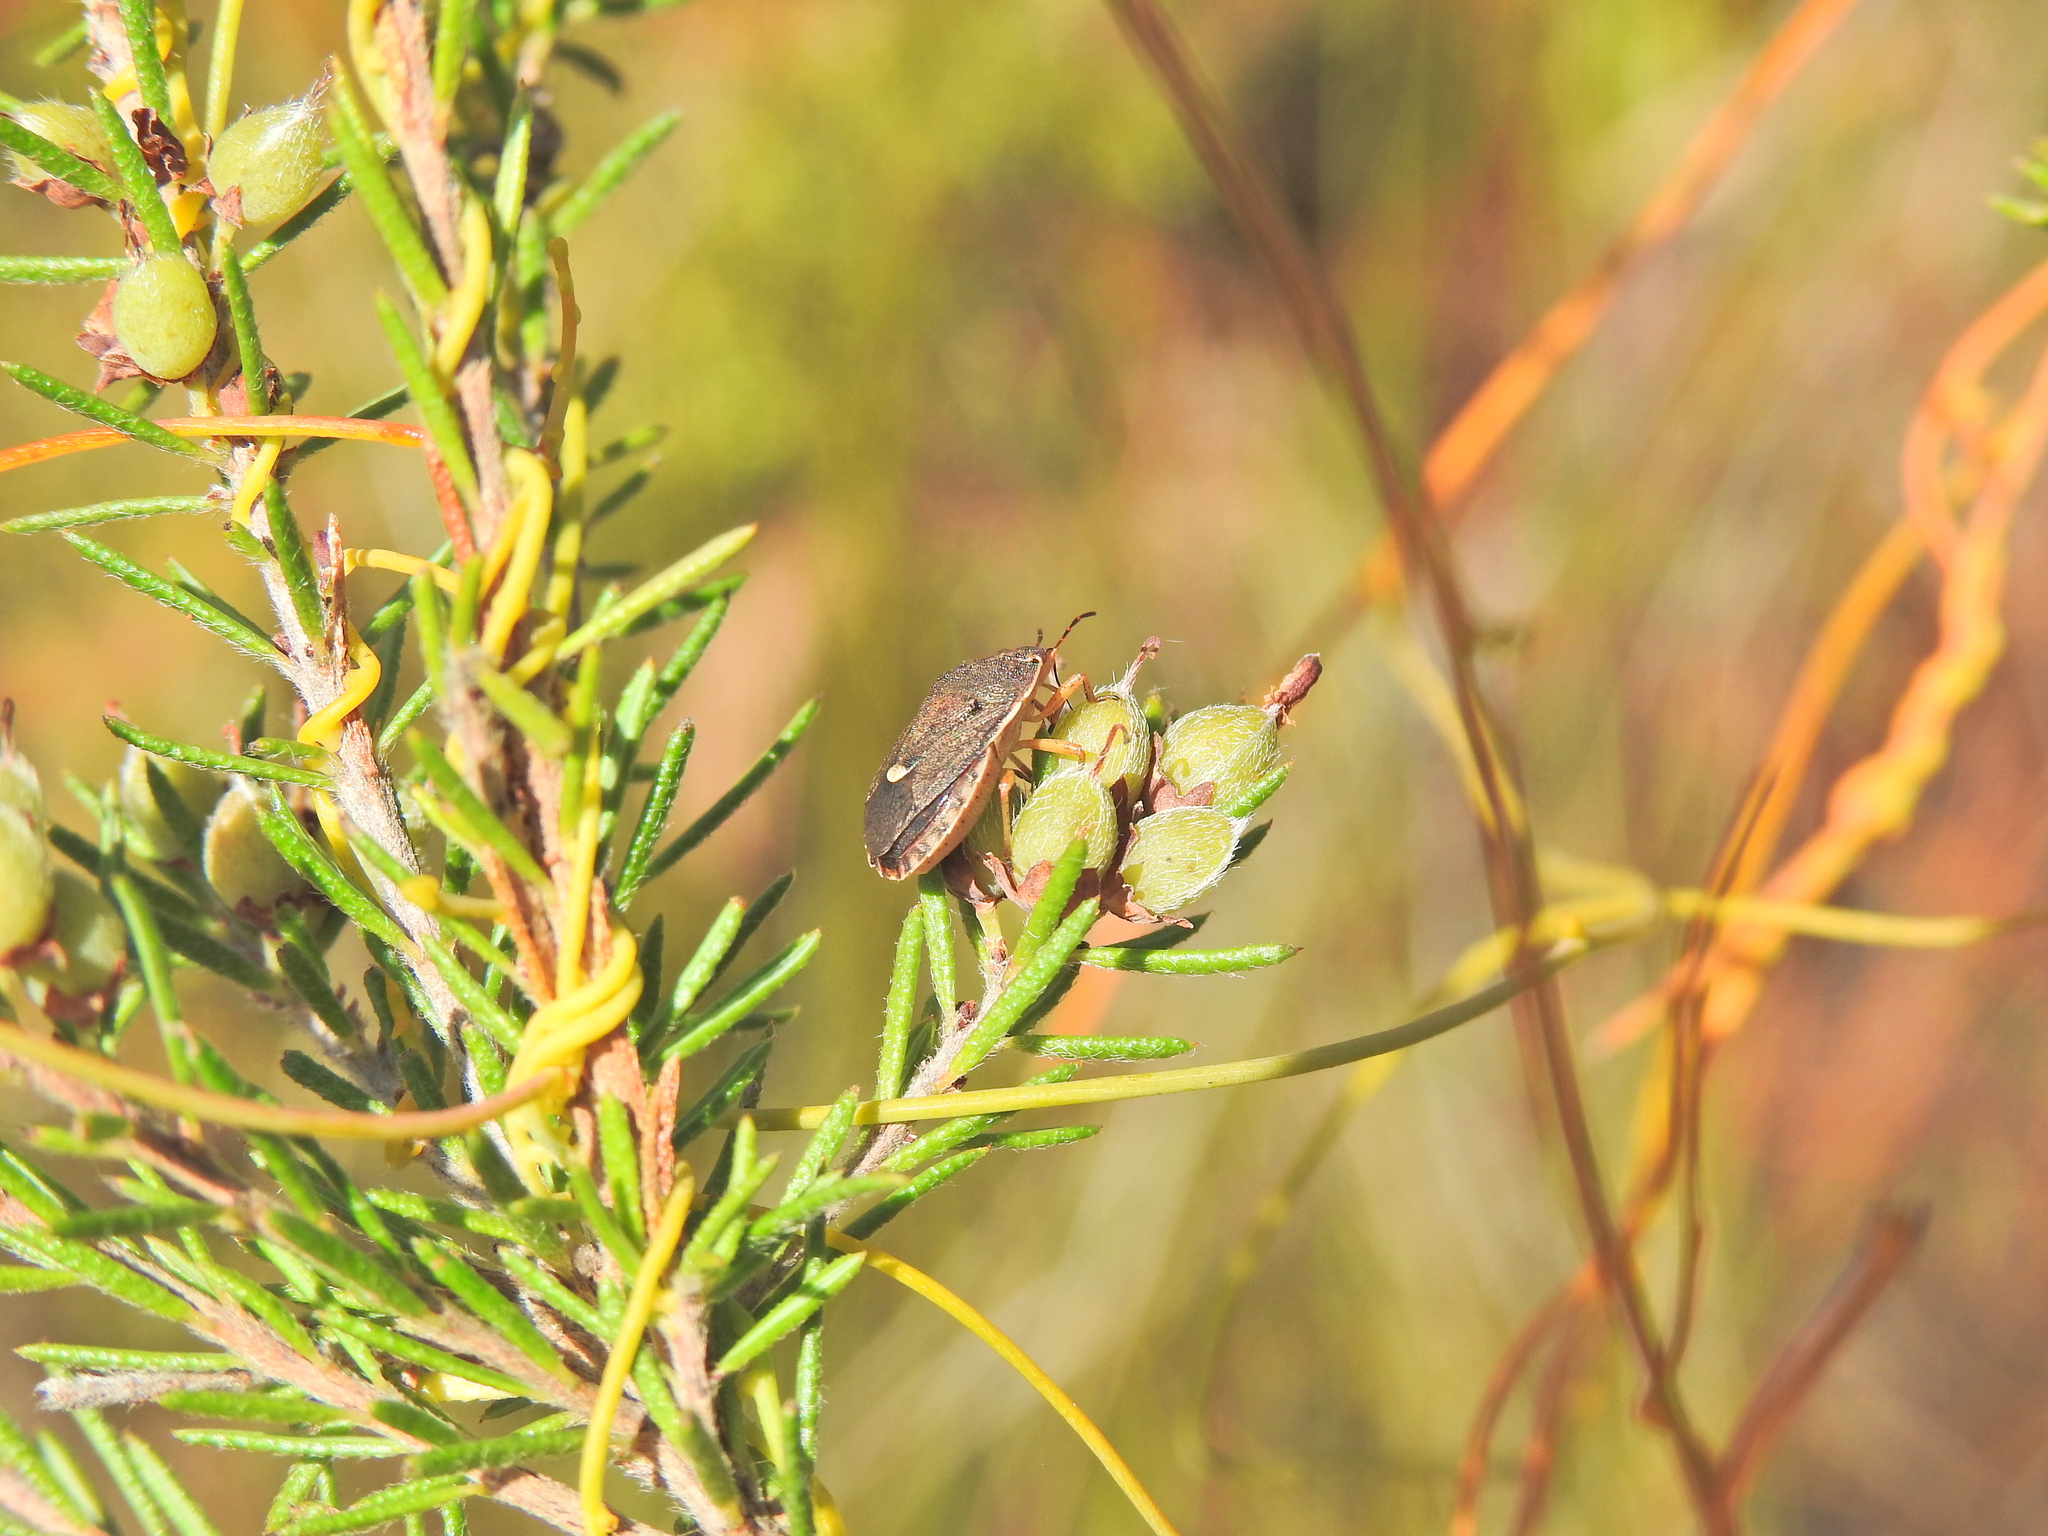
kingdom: Plantae
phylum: Tracheophyta
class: Magnoliopsida
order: Fabales
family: Fabaceae
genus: Phyllota
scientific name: Phyllota phylicoides
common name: Heath phyllota
